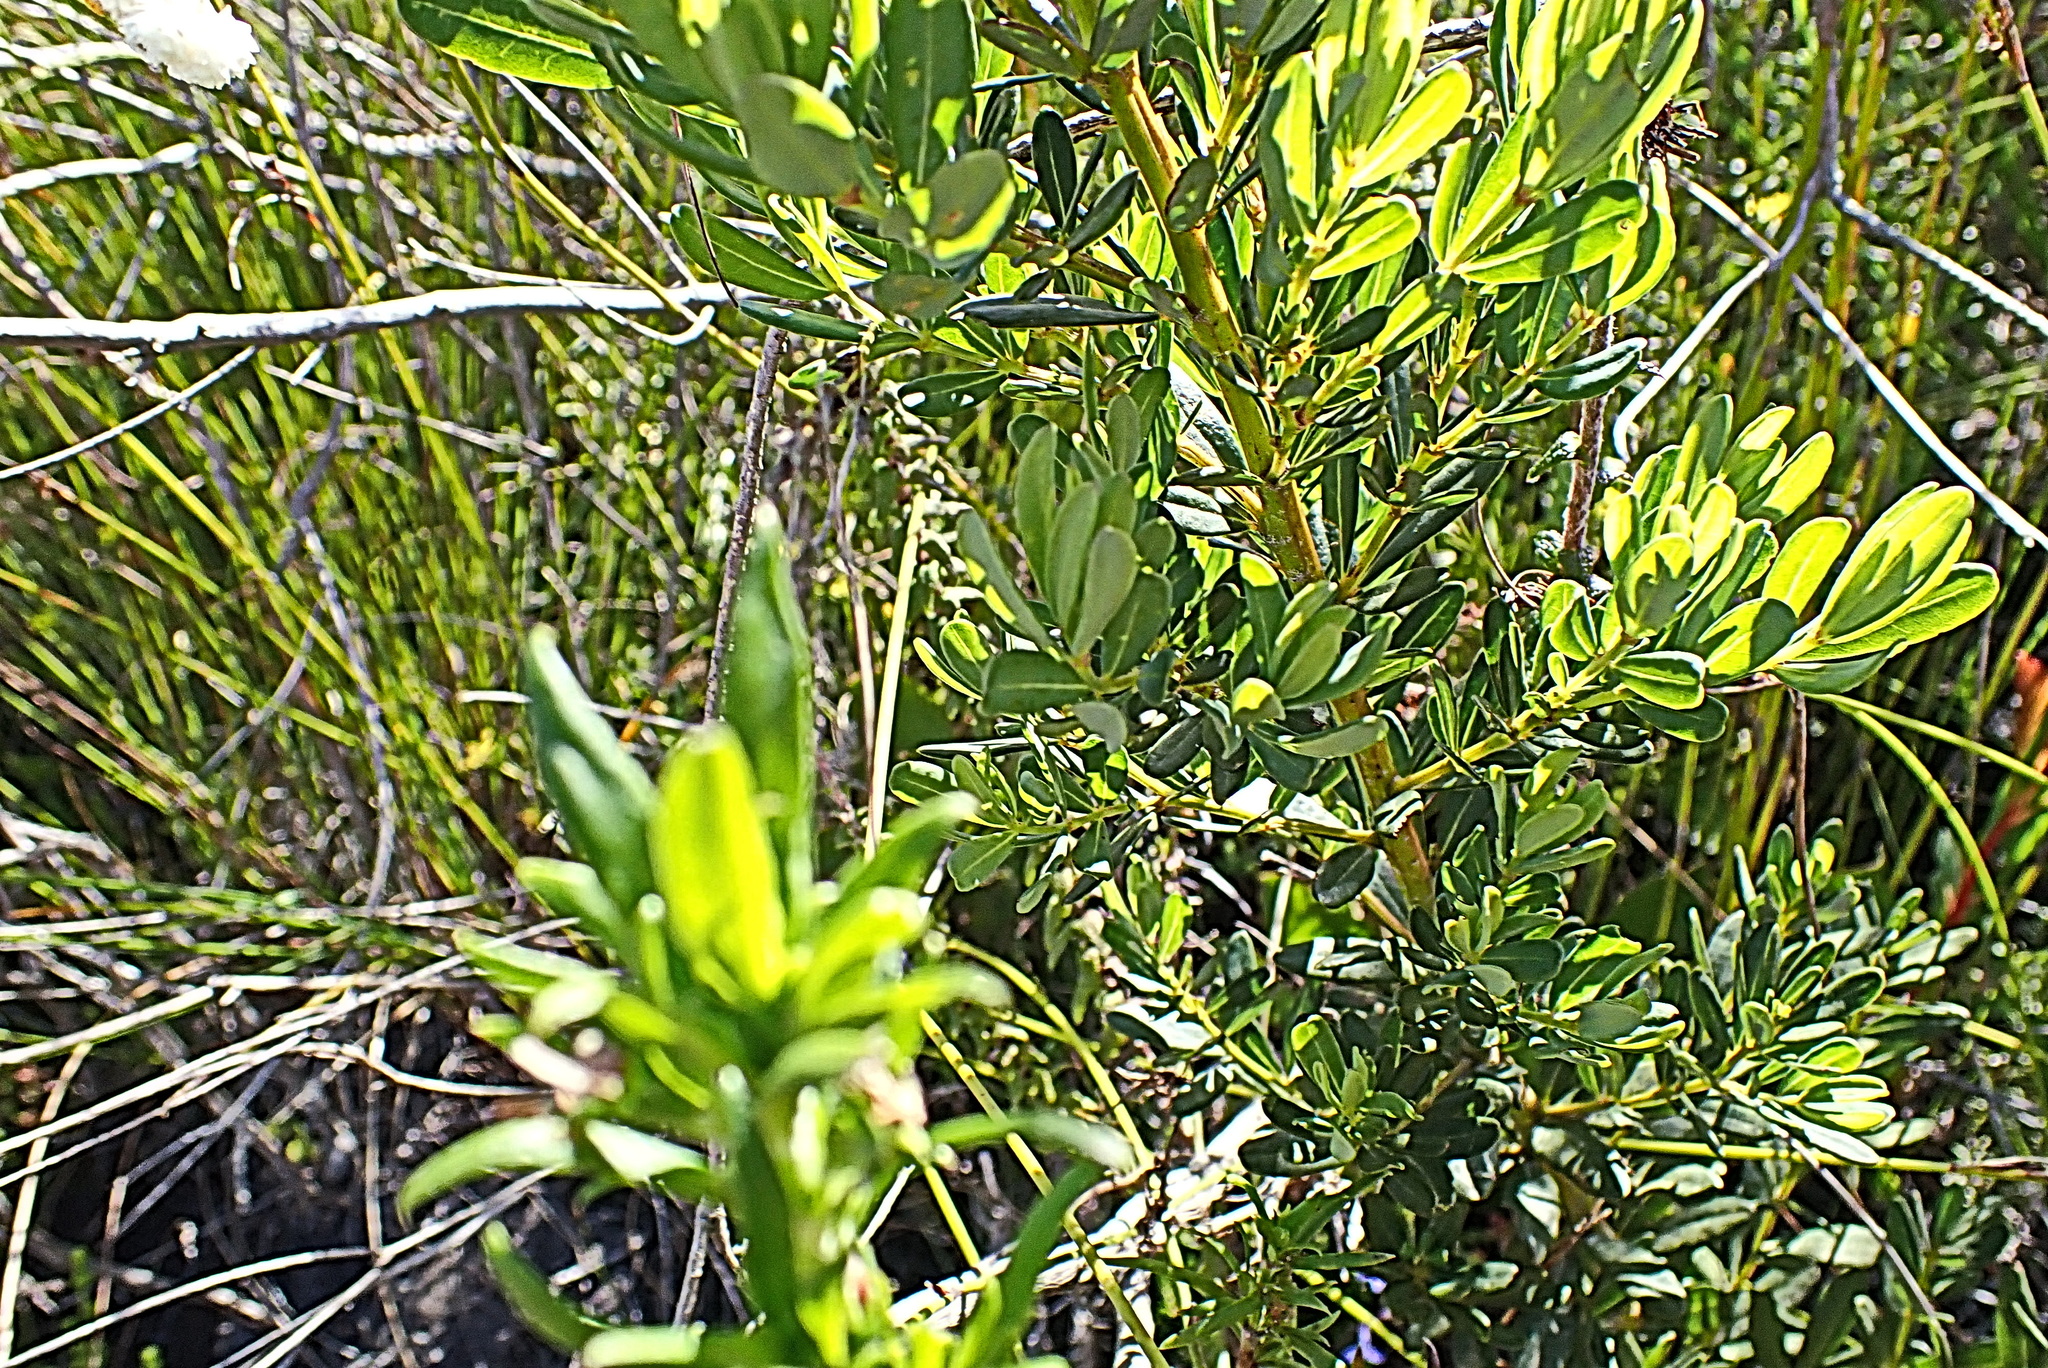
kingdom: Plantae
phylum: Tracheophyta
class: Magnoliopsida
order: Fabales
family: Fabaceae
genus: Cyclopia
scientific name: Cyclopia subternata
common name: Honeybush tea
